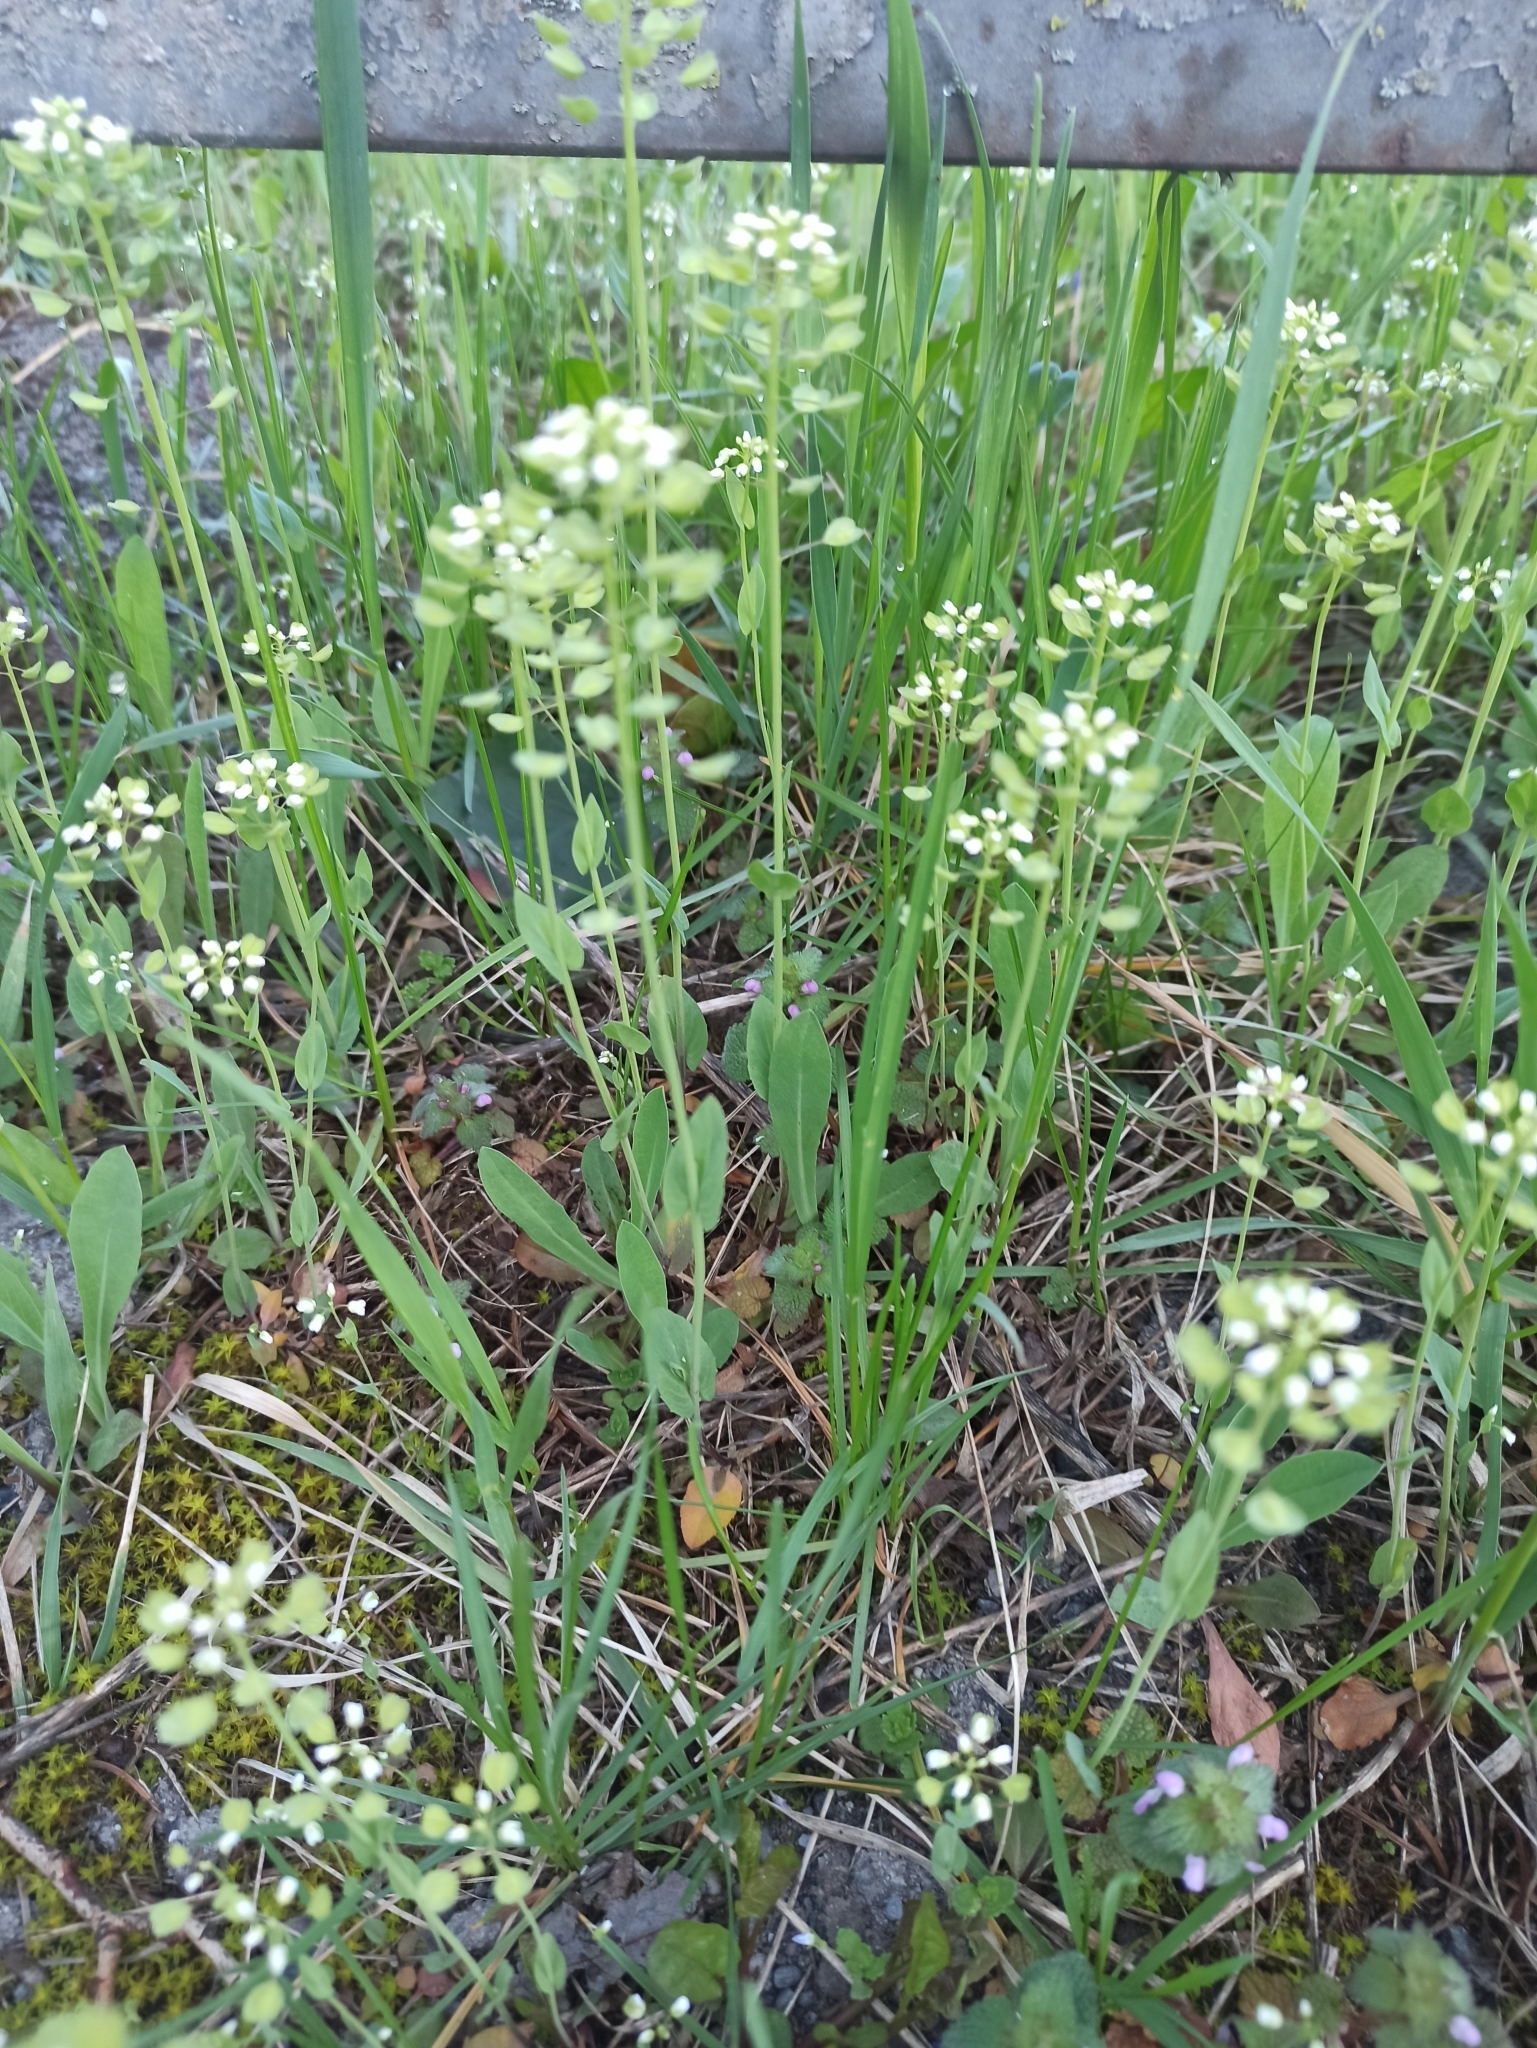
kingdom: Plantae
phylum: Tracheophyta
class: Magnoliopsida
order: Brassicales
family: Brassicaceae
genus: Noccaea
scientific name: Noccaea perfoliata
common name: Perfoliate pennycress
